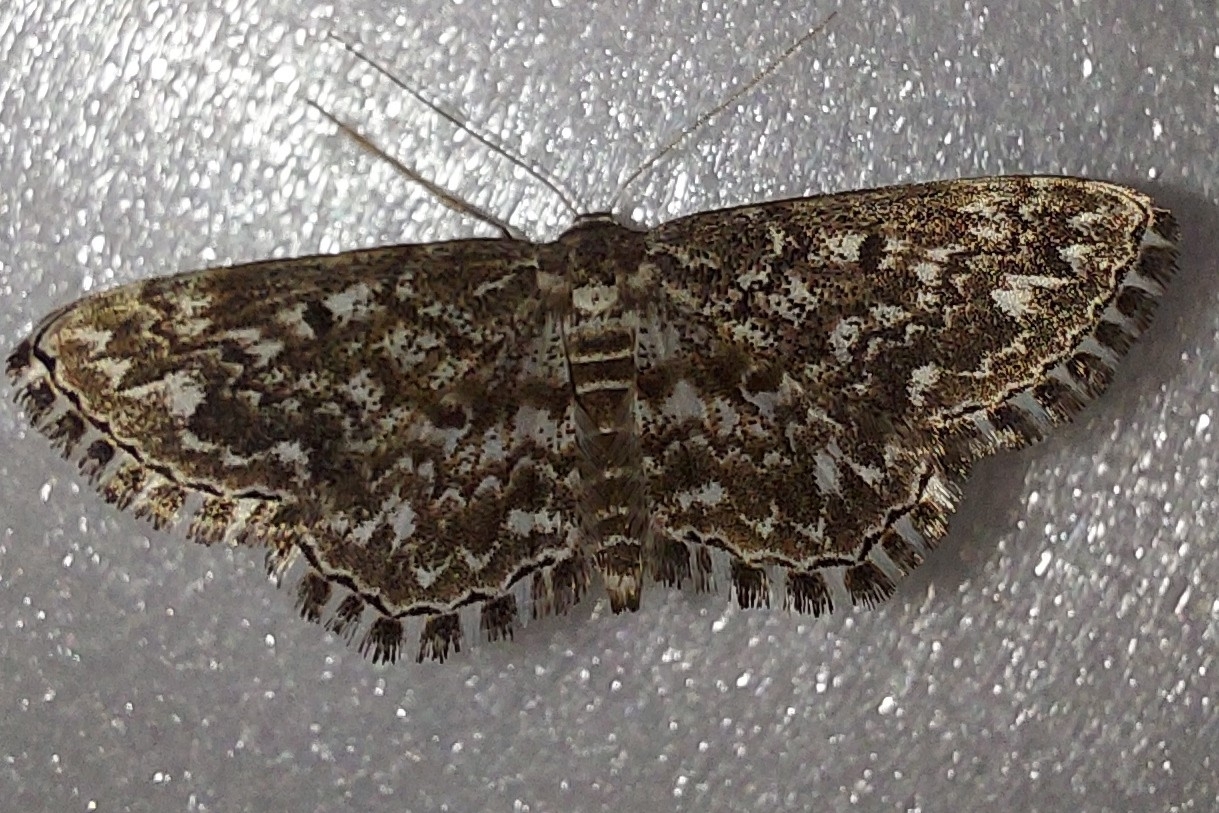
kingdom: Animalia
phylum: Arthropoda
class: Insecta
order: Lepidoptera
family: Geometridae
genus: Scopula
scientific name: Scopula inscriptata
